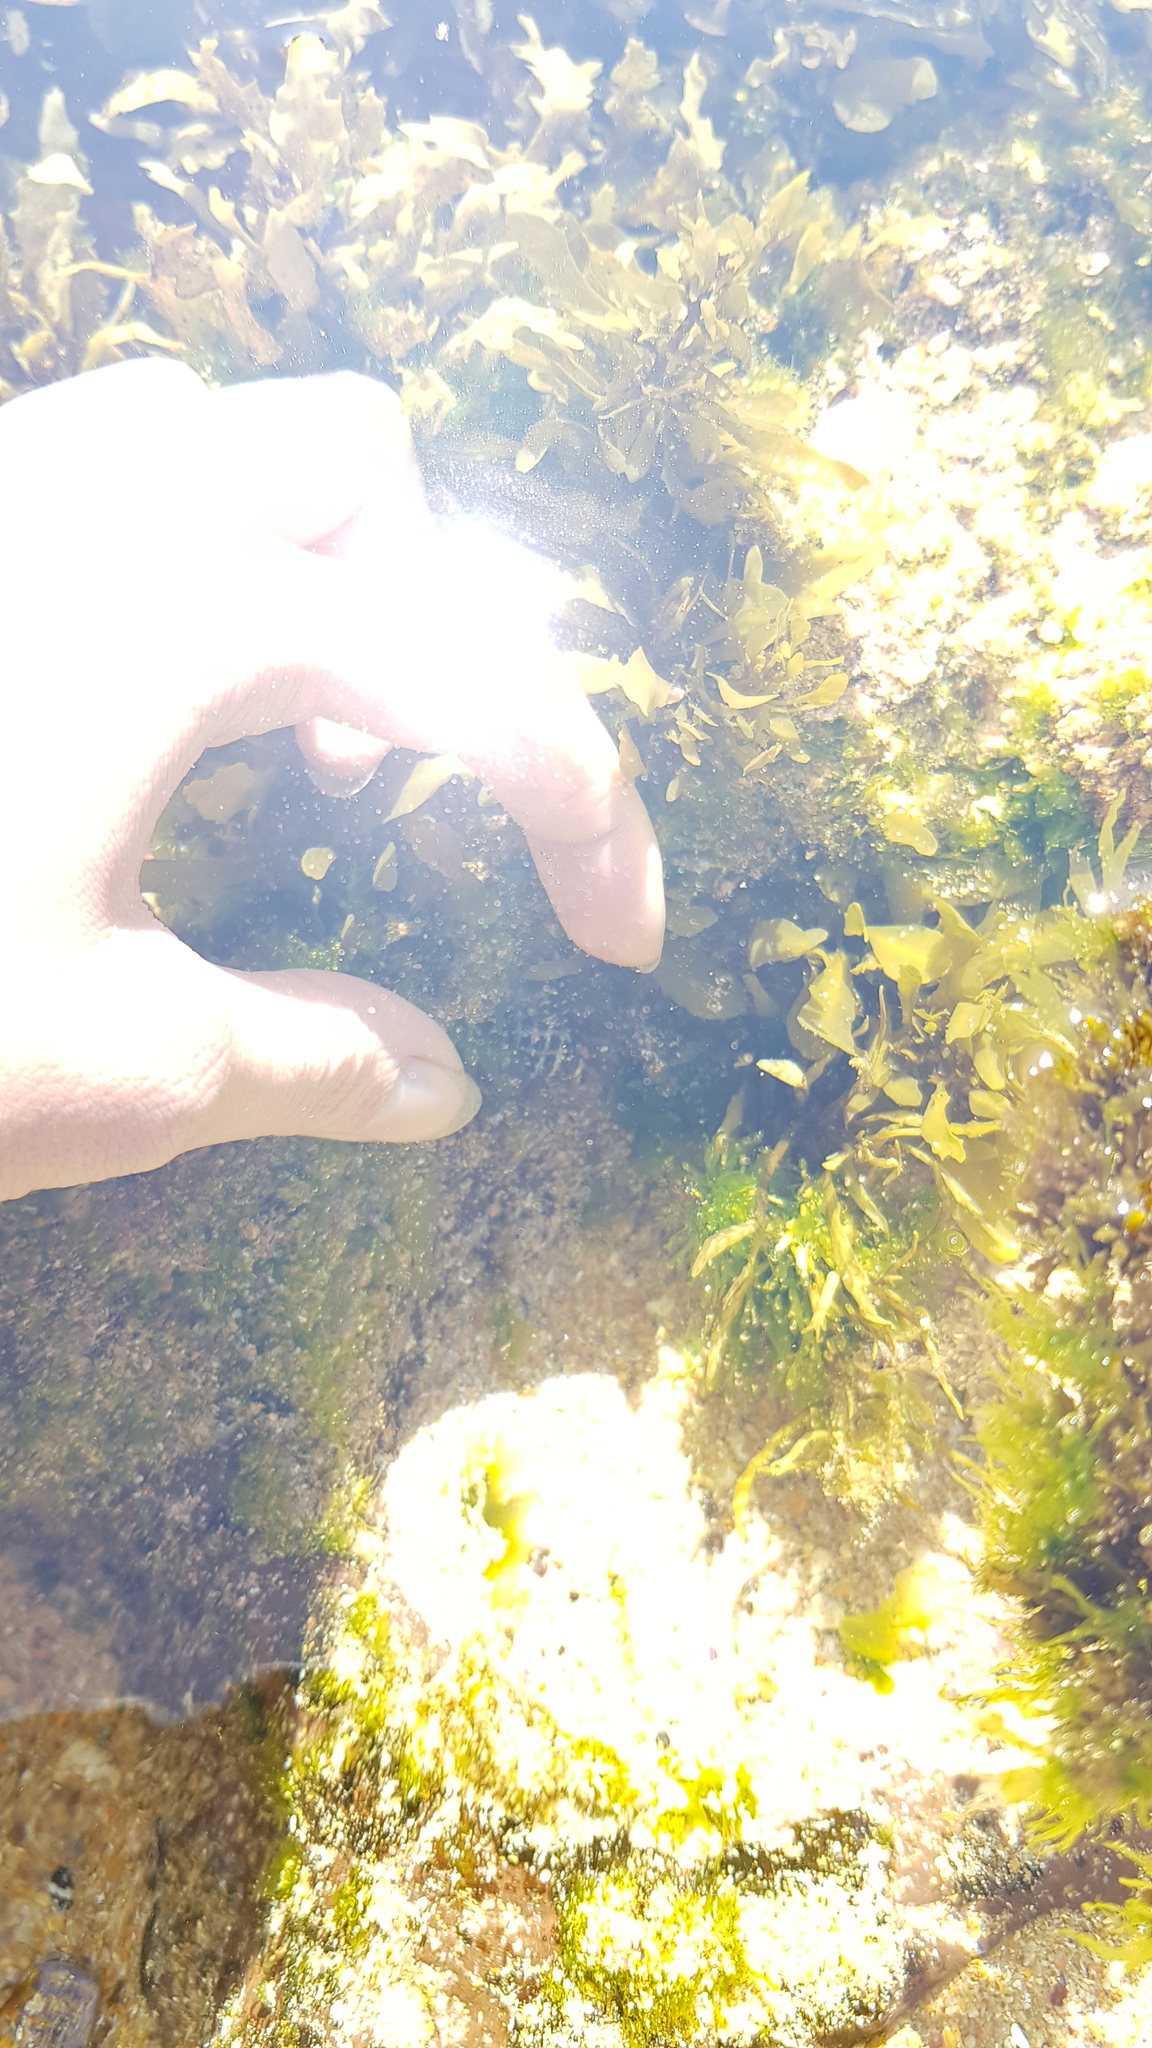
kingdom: Animalia
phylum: Mollusca
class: Gastropoda
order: Neogastropoda
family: Muricidae
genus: Tenguella
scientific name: Tenguella marginalba
